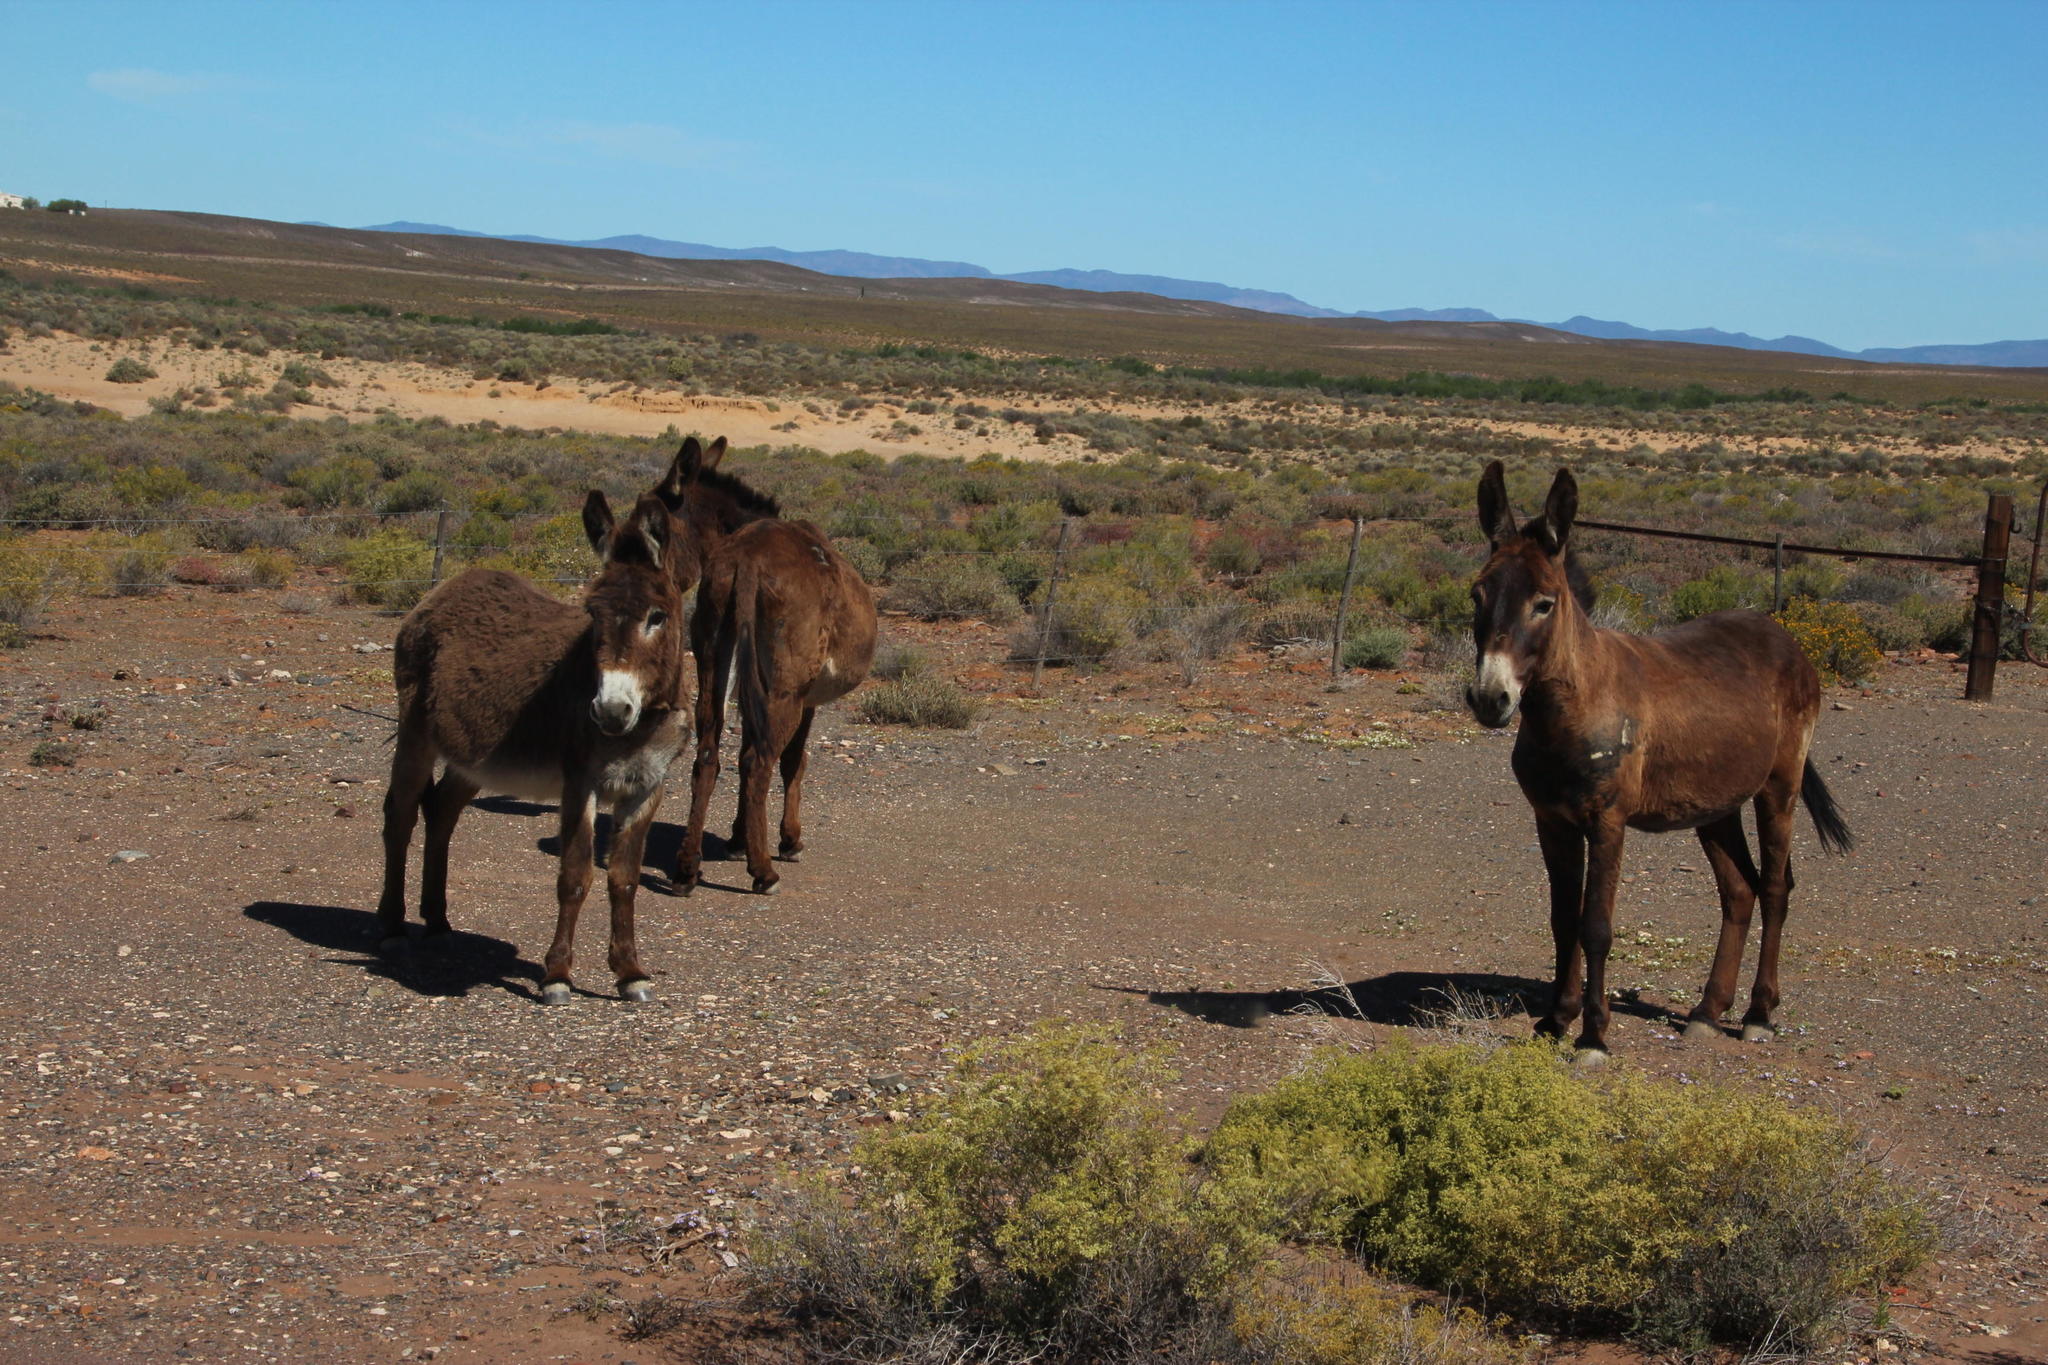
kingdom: Animalia
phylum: Chordata
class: Mammalia
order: Perissodactyla
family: Equidae
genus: Equus
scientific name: Equus asinus
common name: Ass
